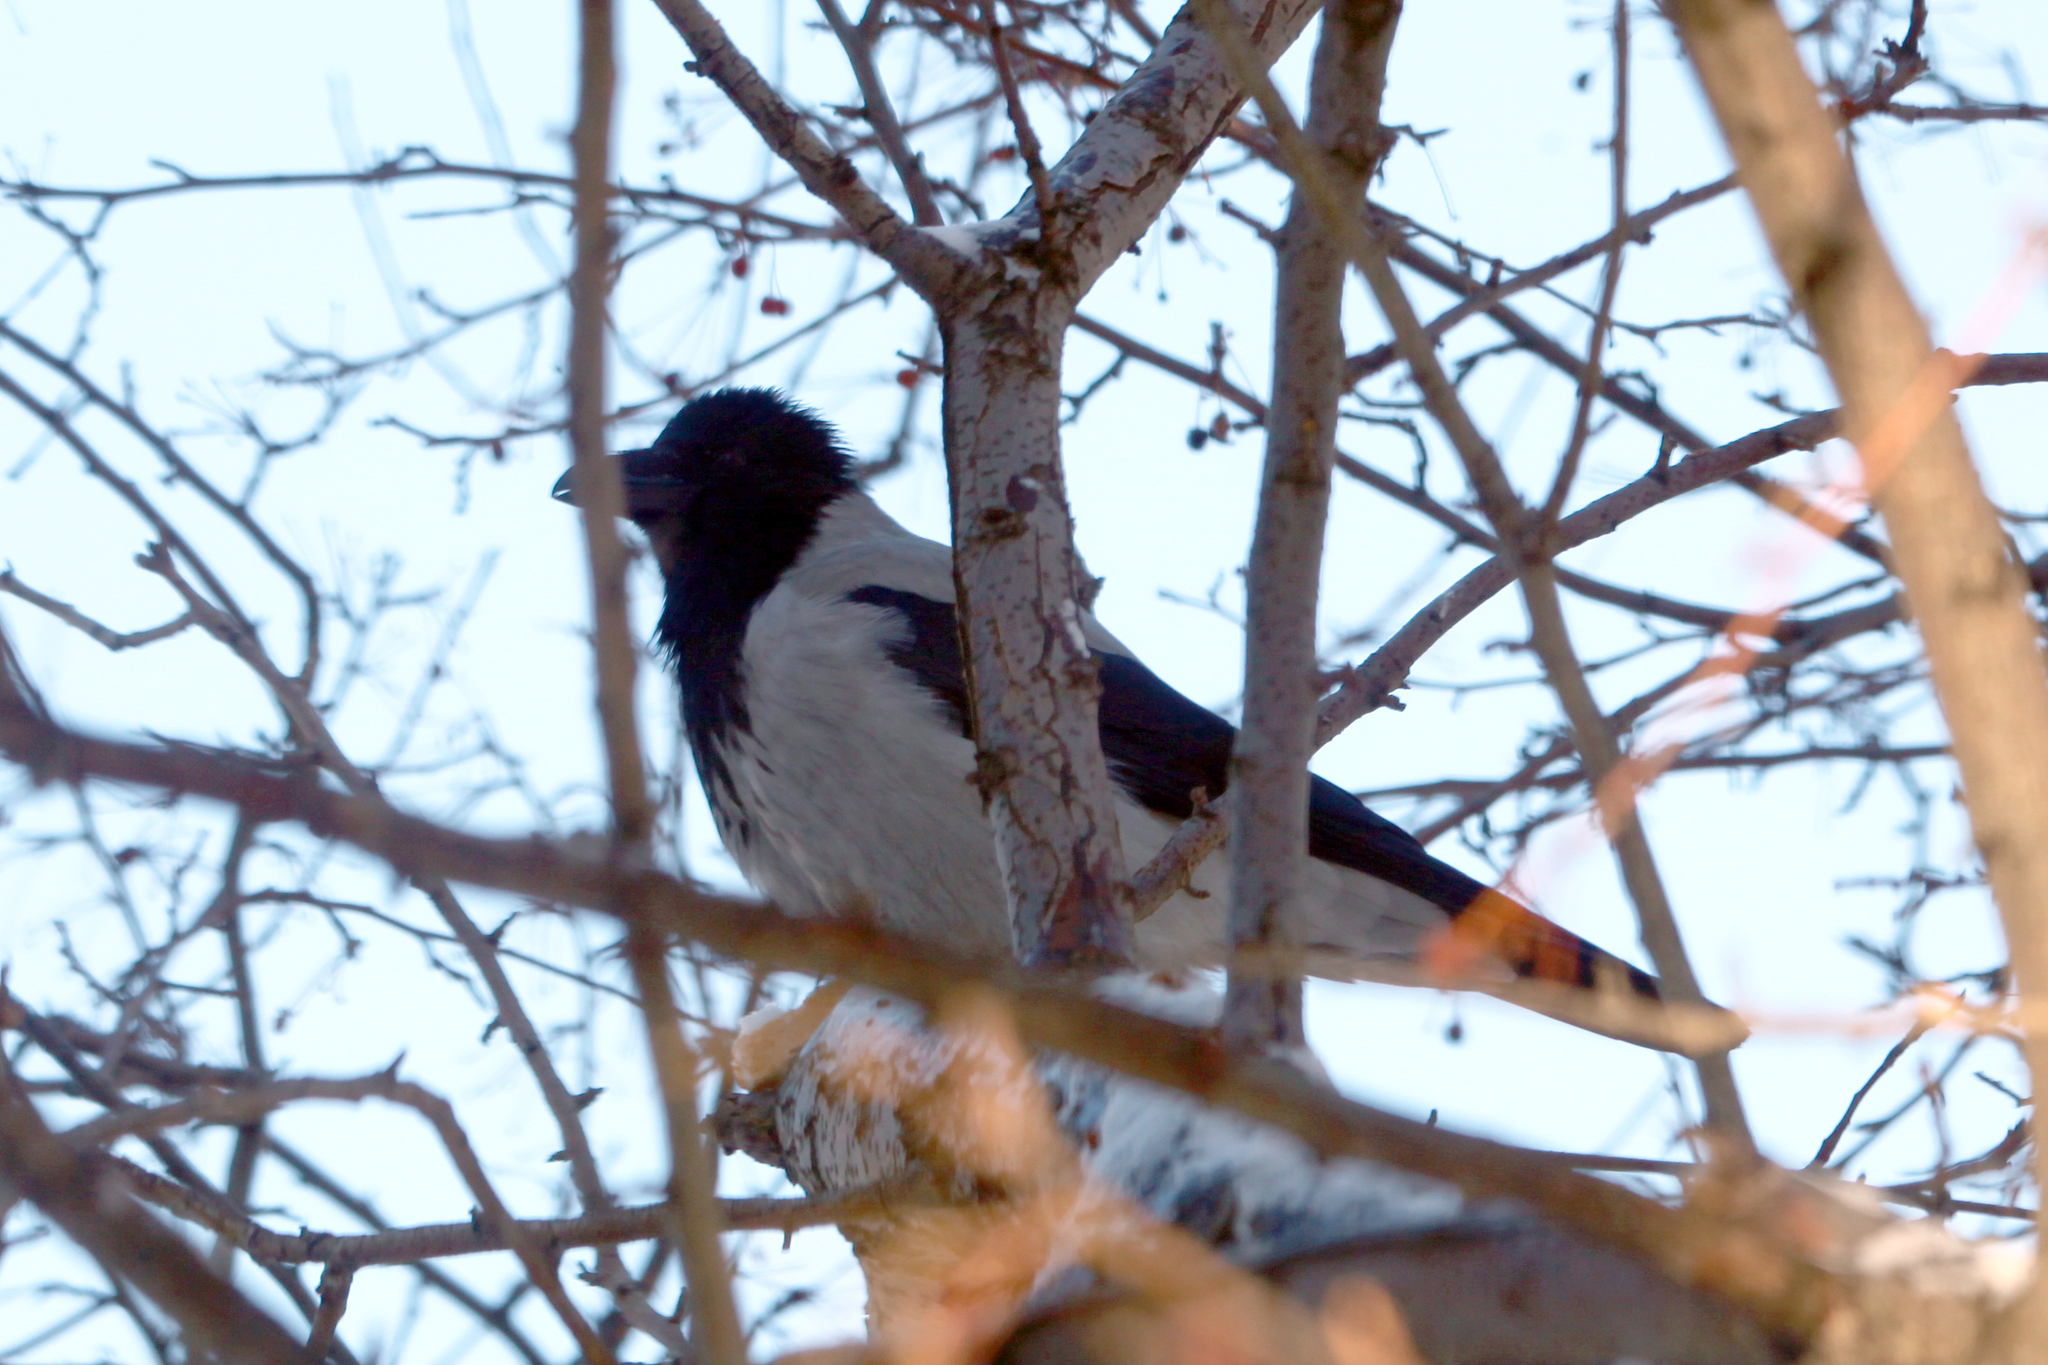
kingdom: Animalia
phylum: Chordata
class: Aves
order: Passeriformes
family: Corvidae
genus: Corvus
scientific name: Corvus cornix
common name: Hooded crow
